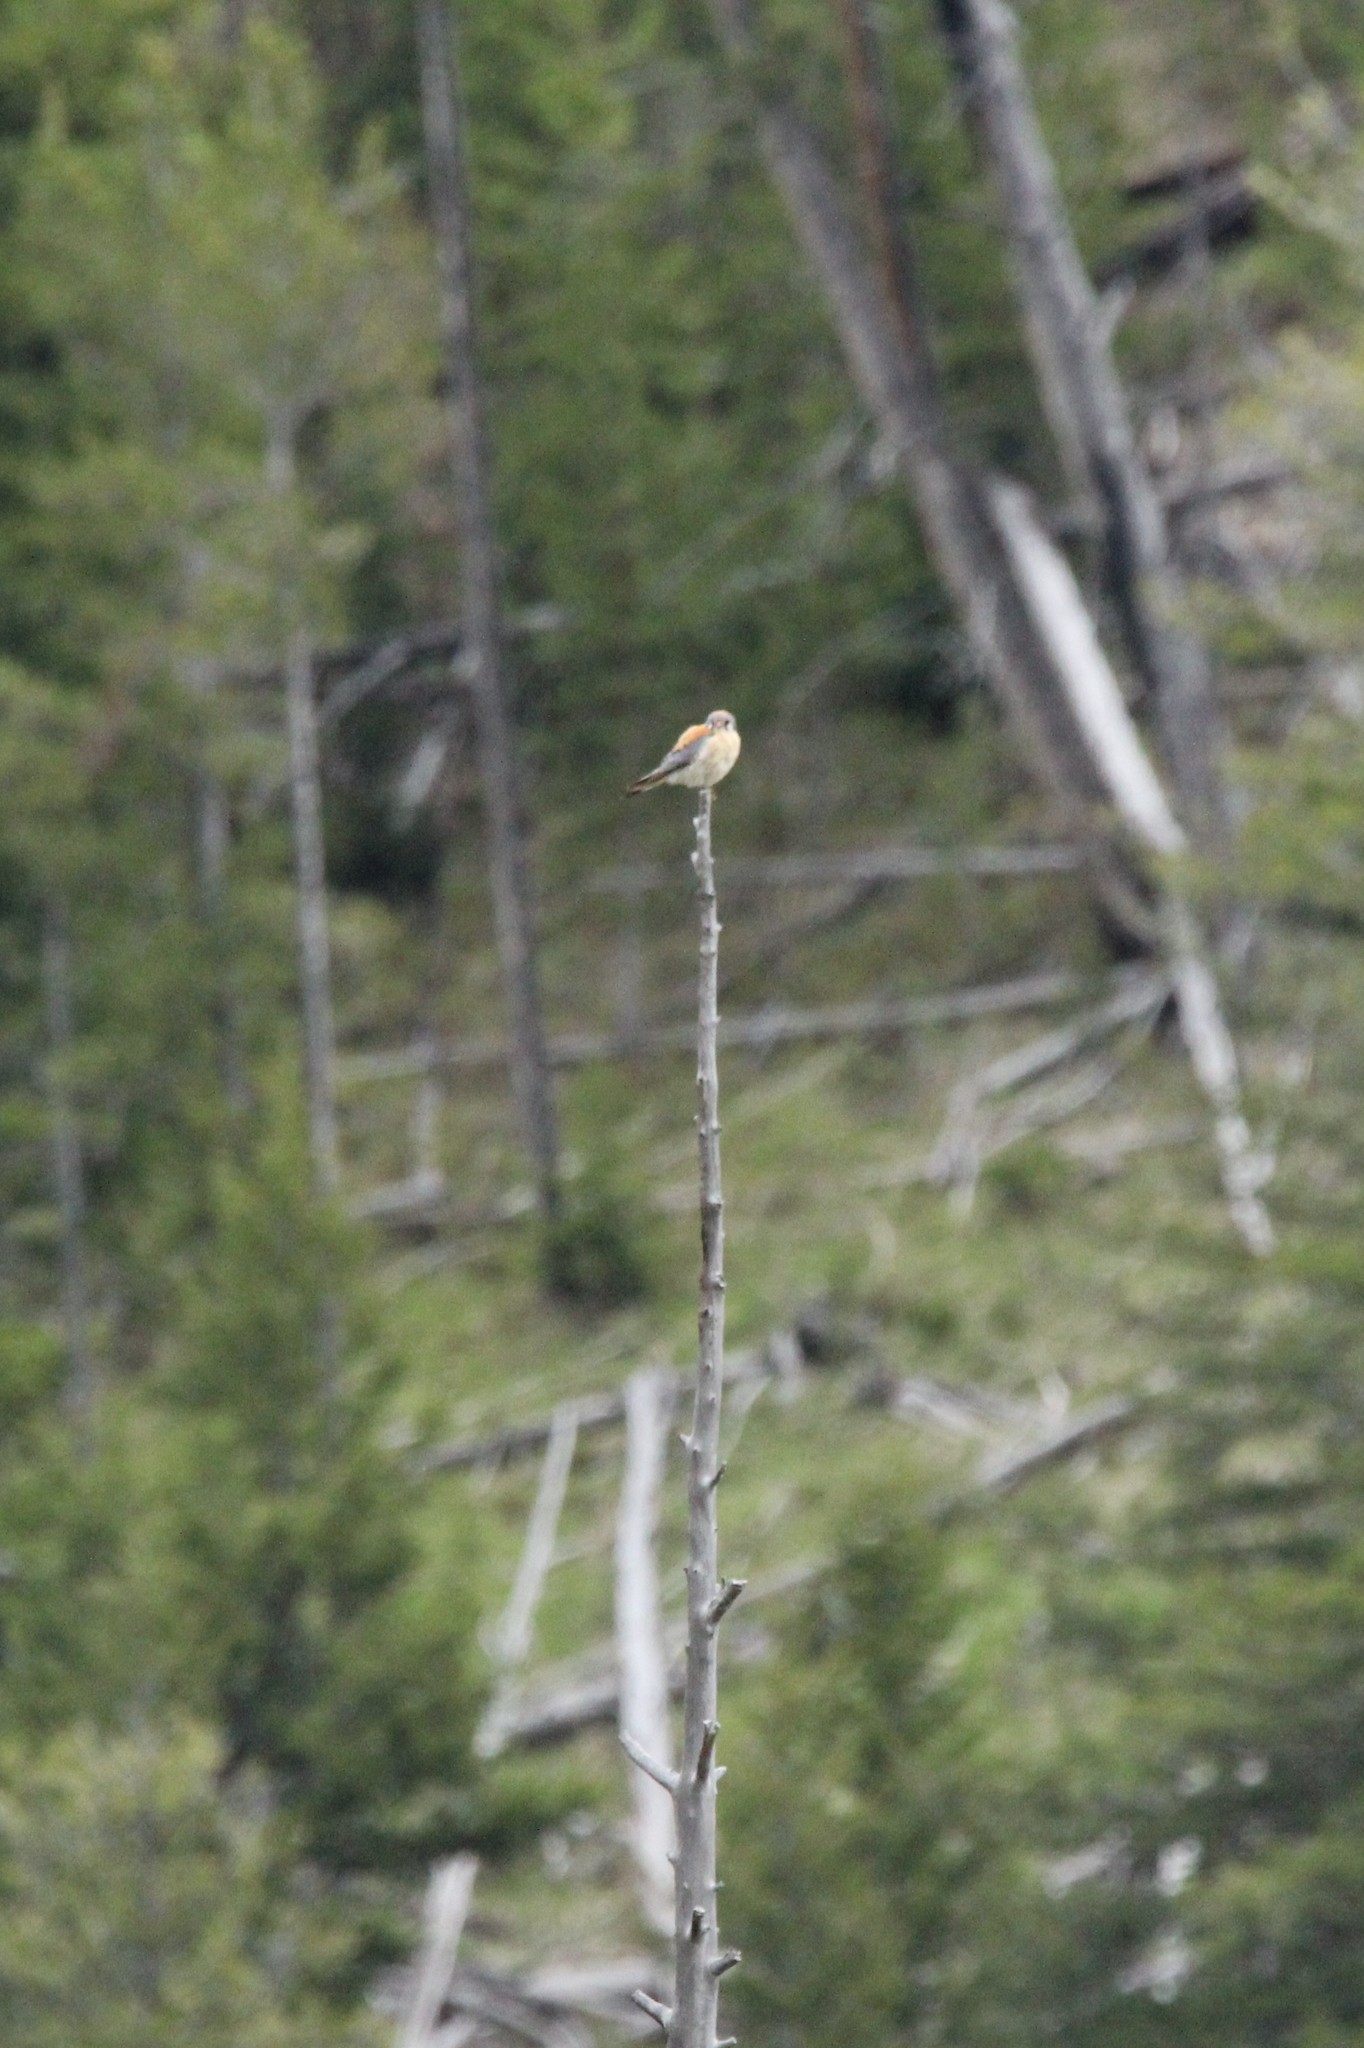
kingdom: Animalia
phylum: Chordata
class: Aves
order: Falconiformes
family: Falconidae
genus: Falco
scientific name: Falco sparverius
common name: American kestrel
